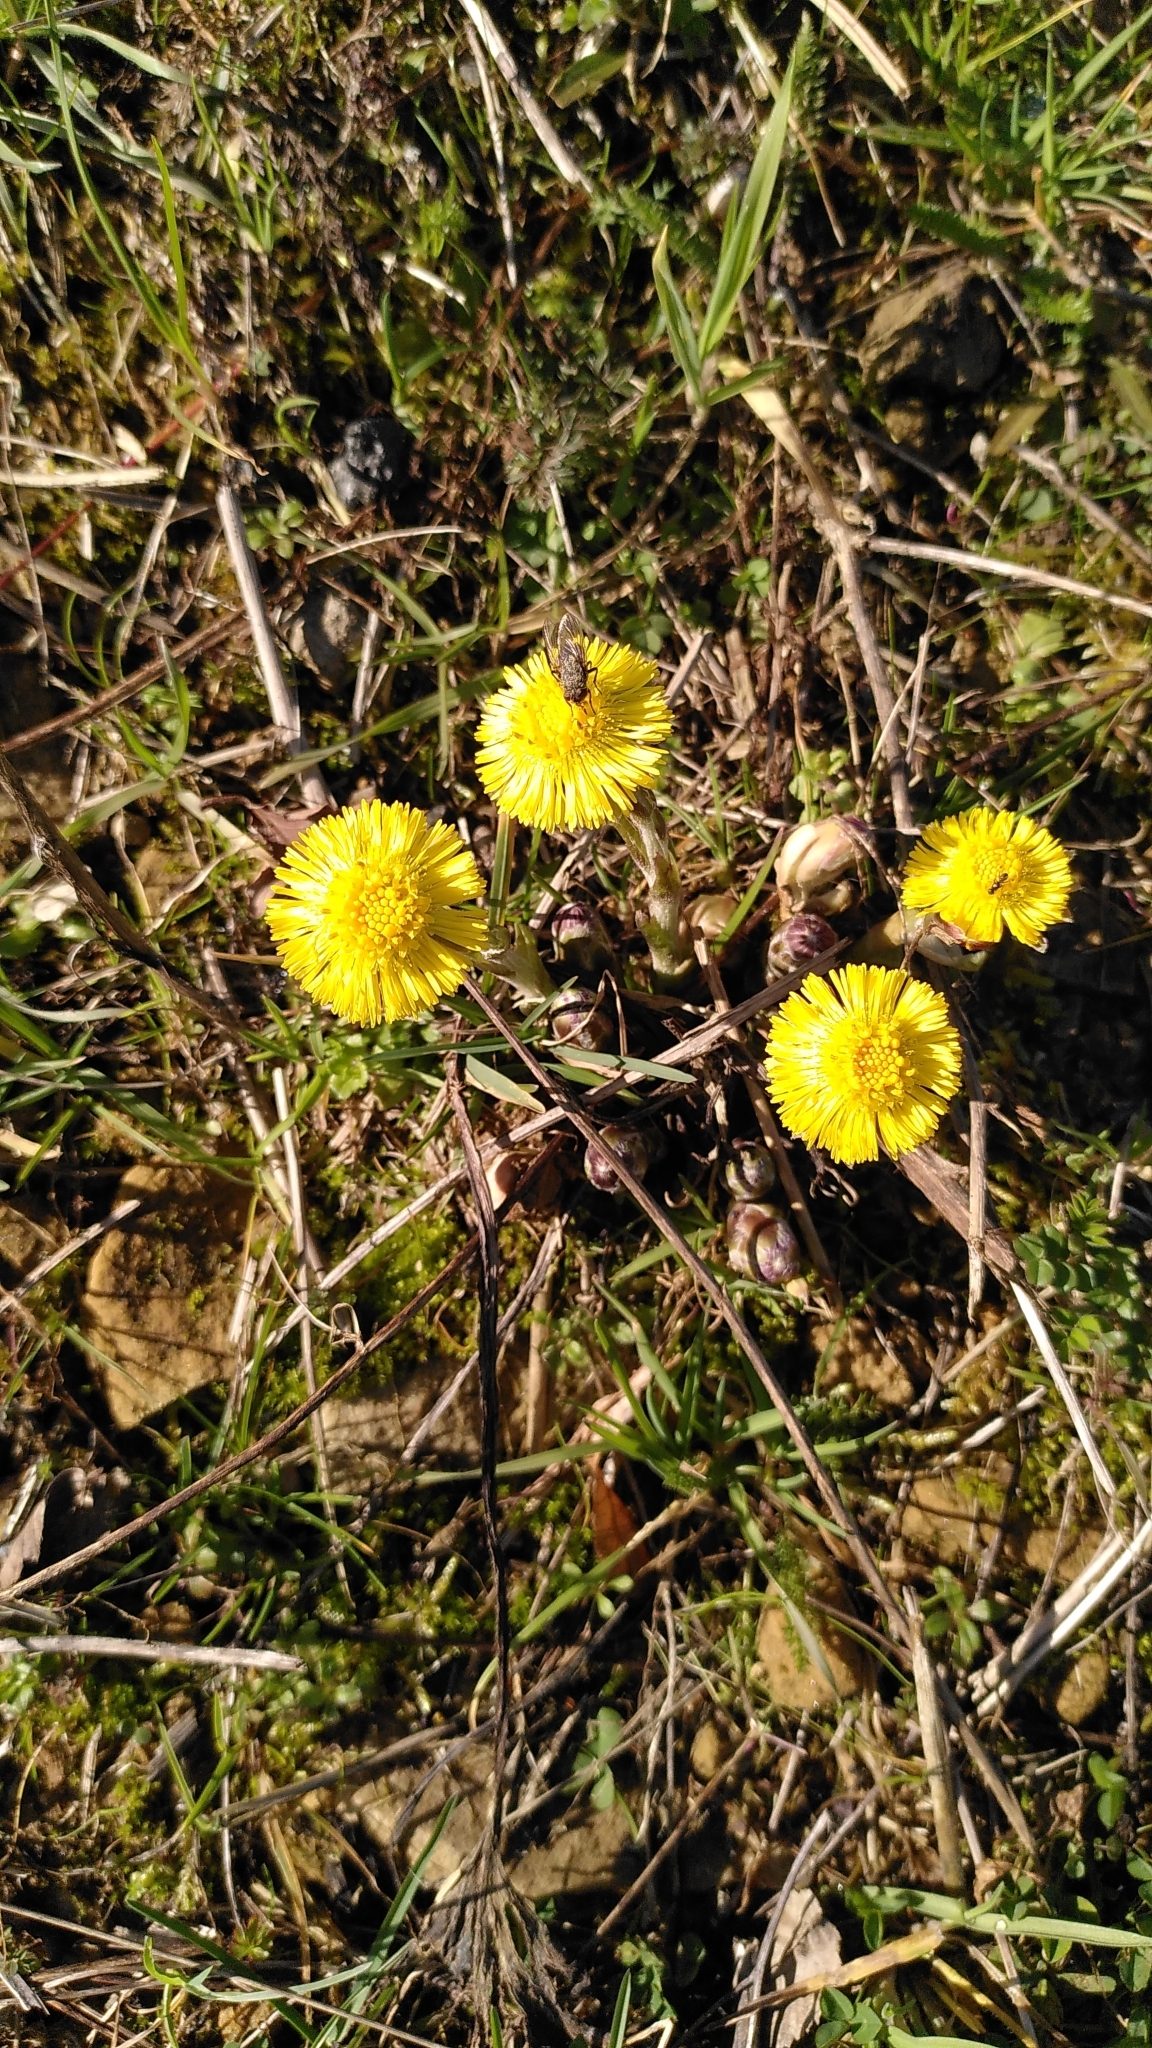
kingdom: Plantae
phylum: Tracheophyta
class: Magnoliopsida
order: Asterales
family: Asteraceae
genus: Tussilago
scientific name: Tussilago farfara
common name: Coltsfoot
